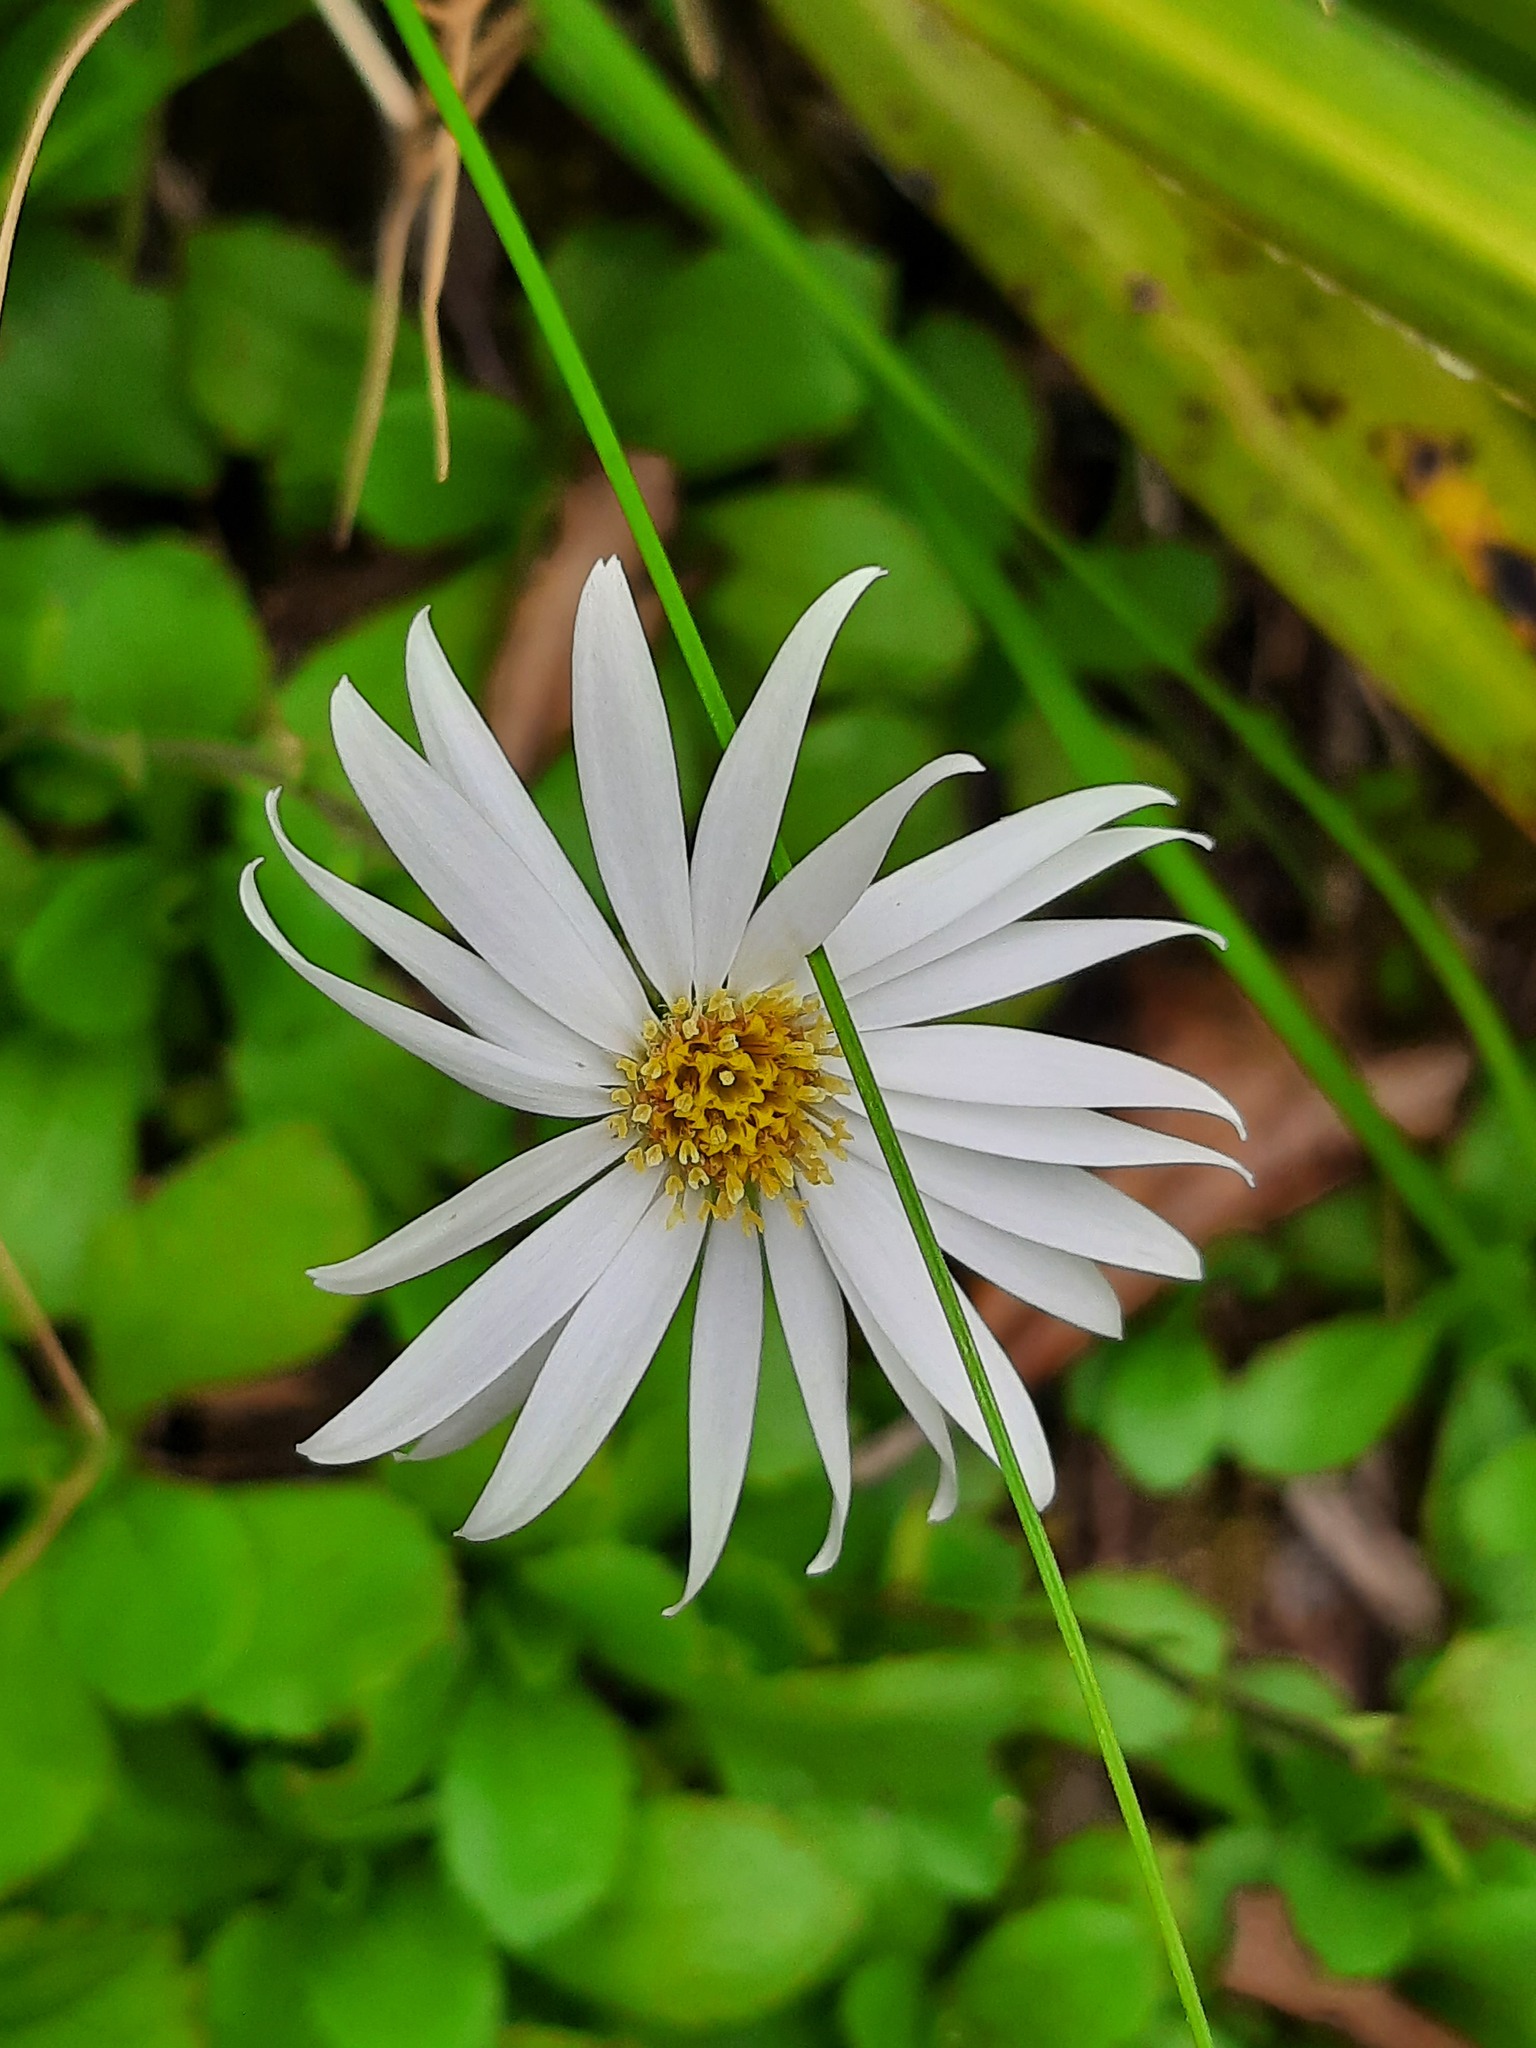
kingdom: Plantae
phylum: Tracheophyta
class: Magnoliopsida
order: Asterales
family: Asteraceae
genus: Celmisia
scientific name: Celmisia glandulosa
